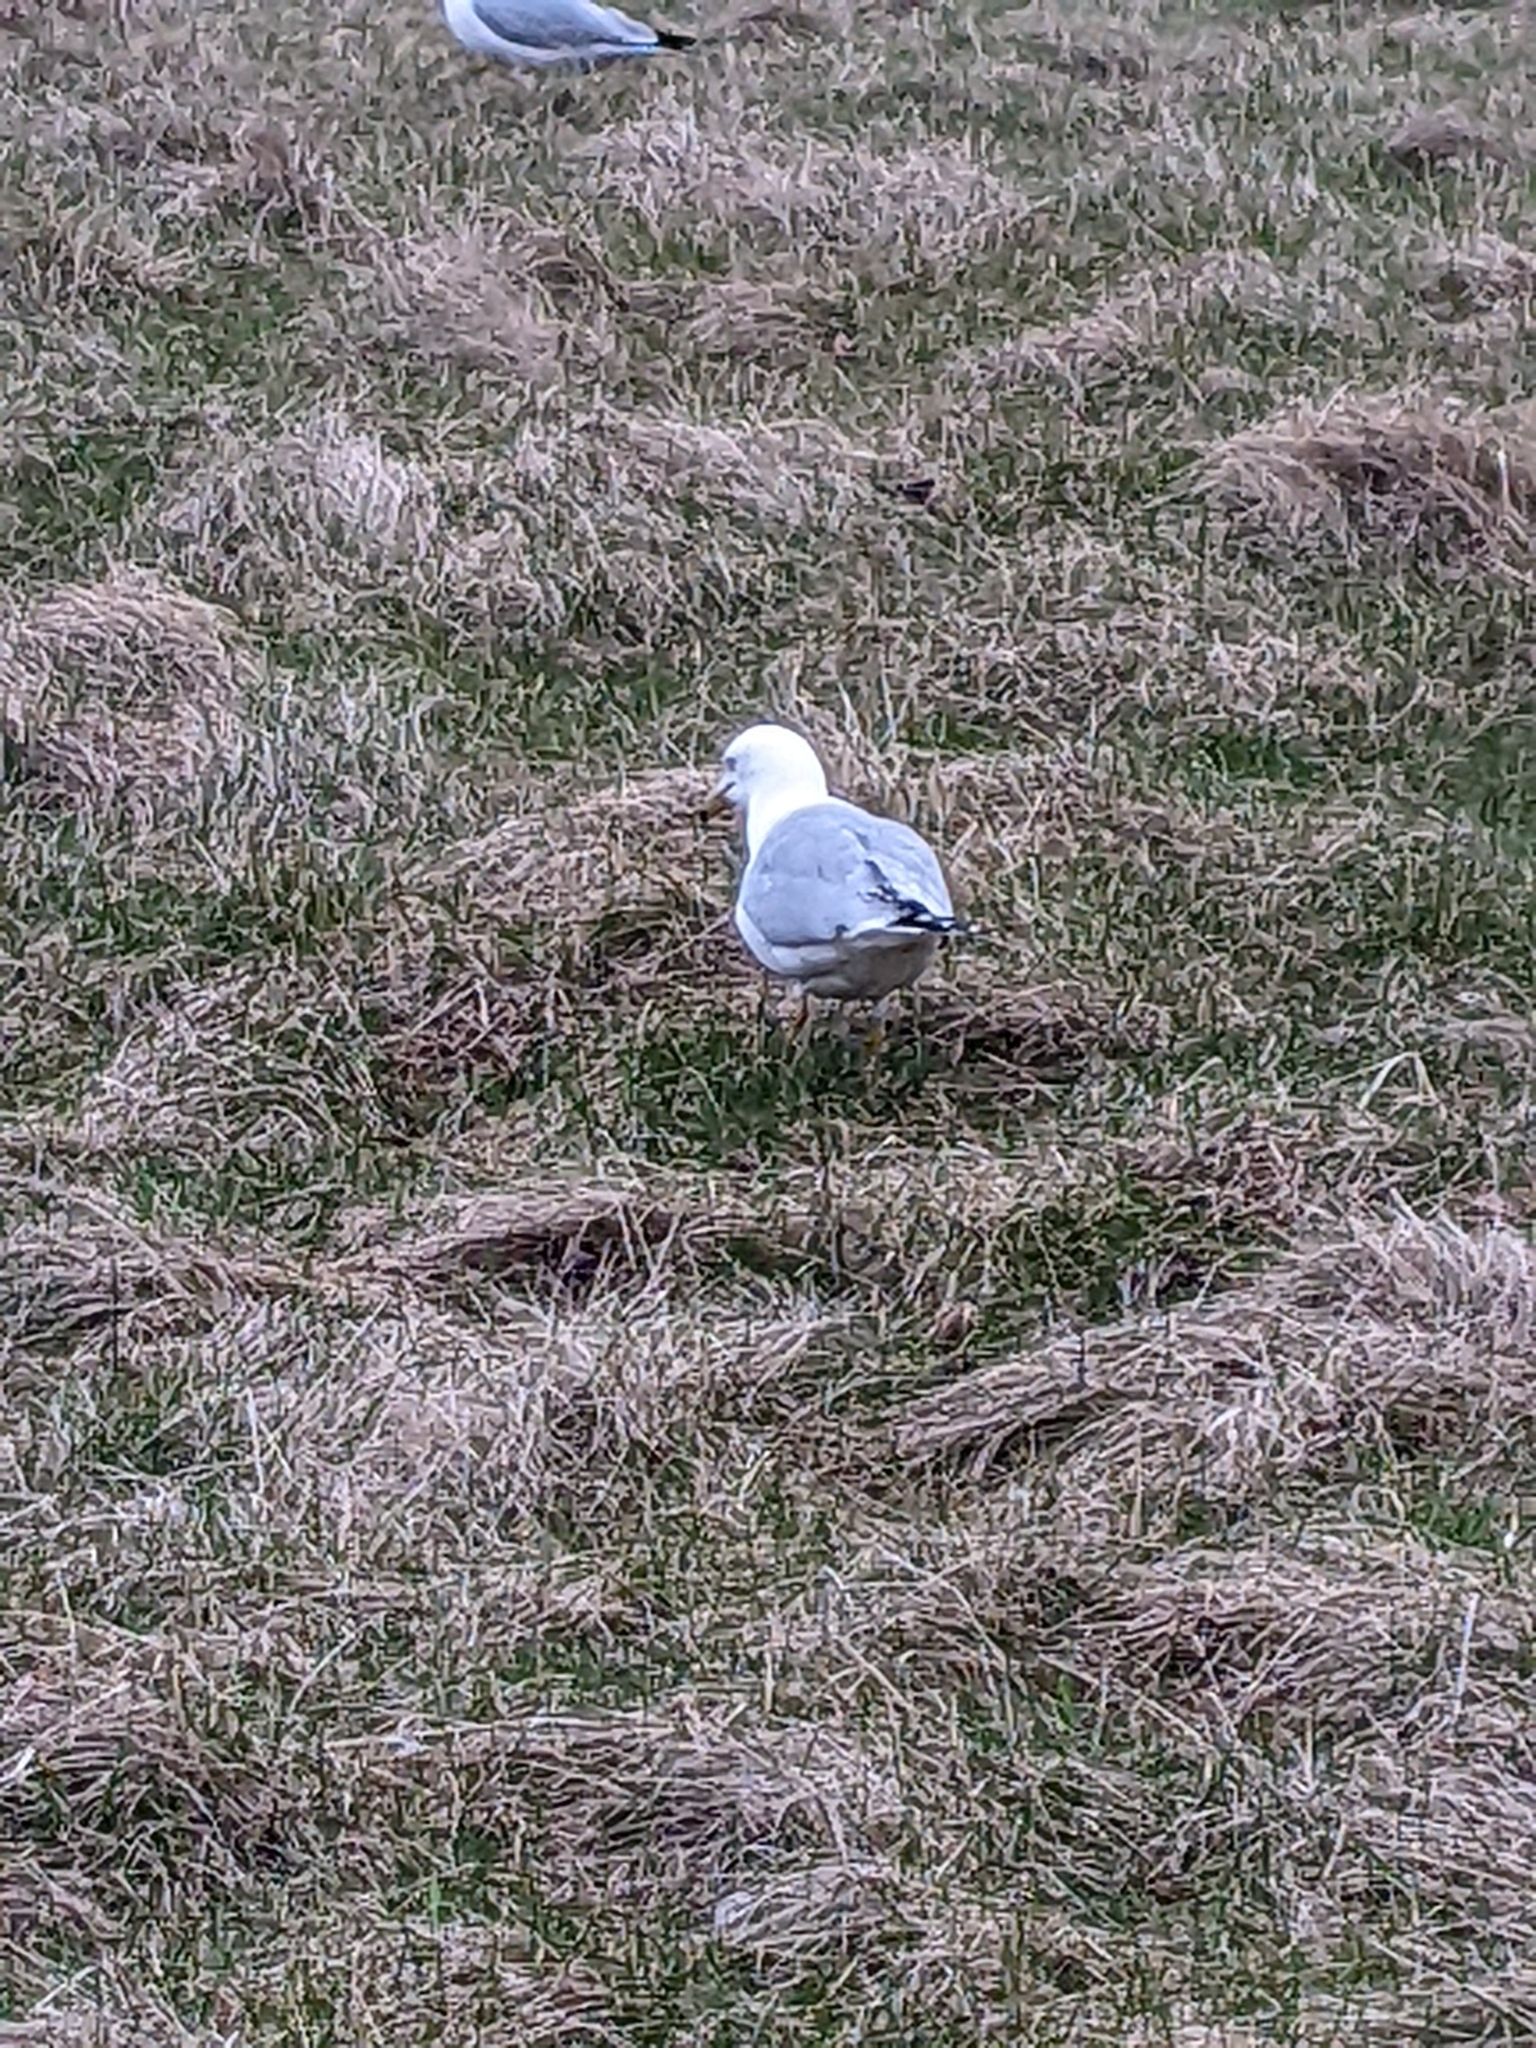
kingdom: Animalia
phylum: Chordata
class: Aves
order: Charadriiformes
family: Laridae
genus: Larus
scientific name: Larus delawarensis
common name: Ring-billed gull
